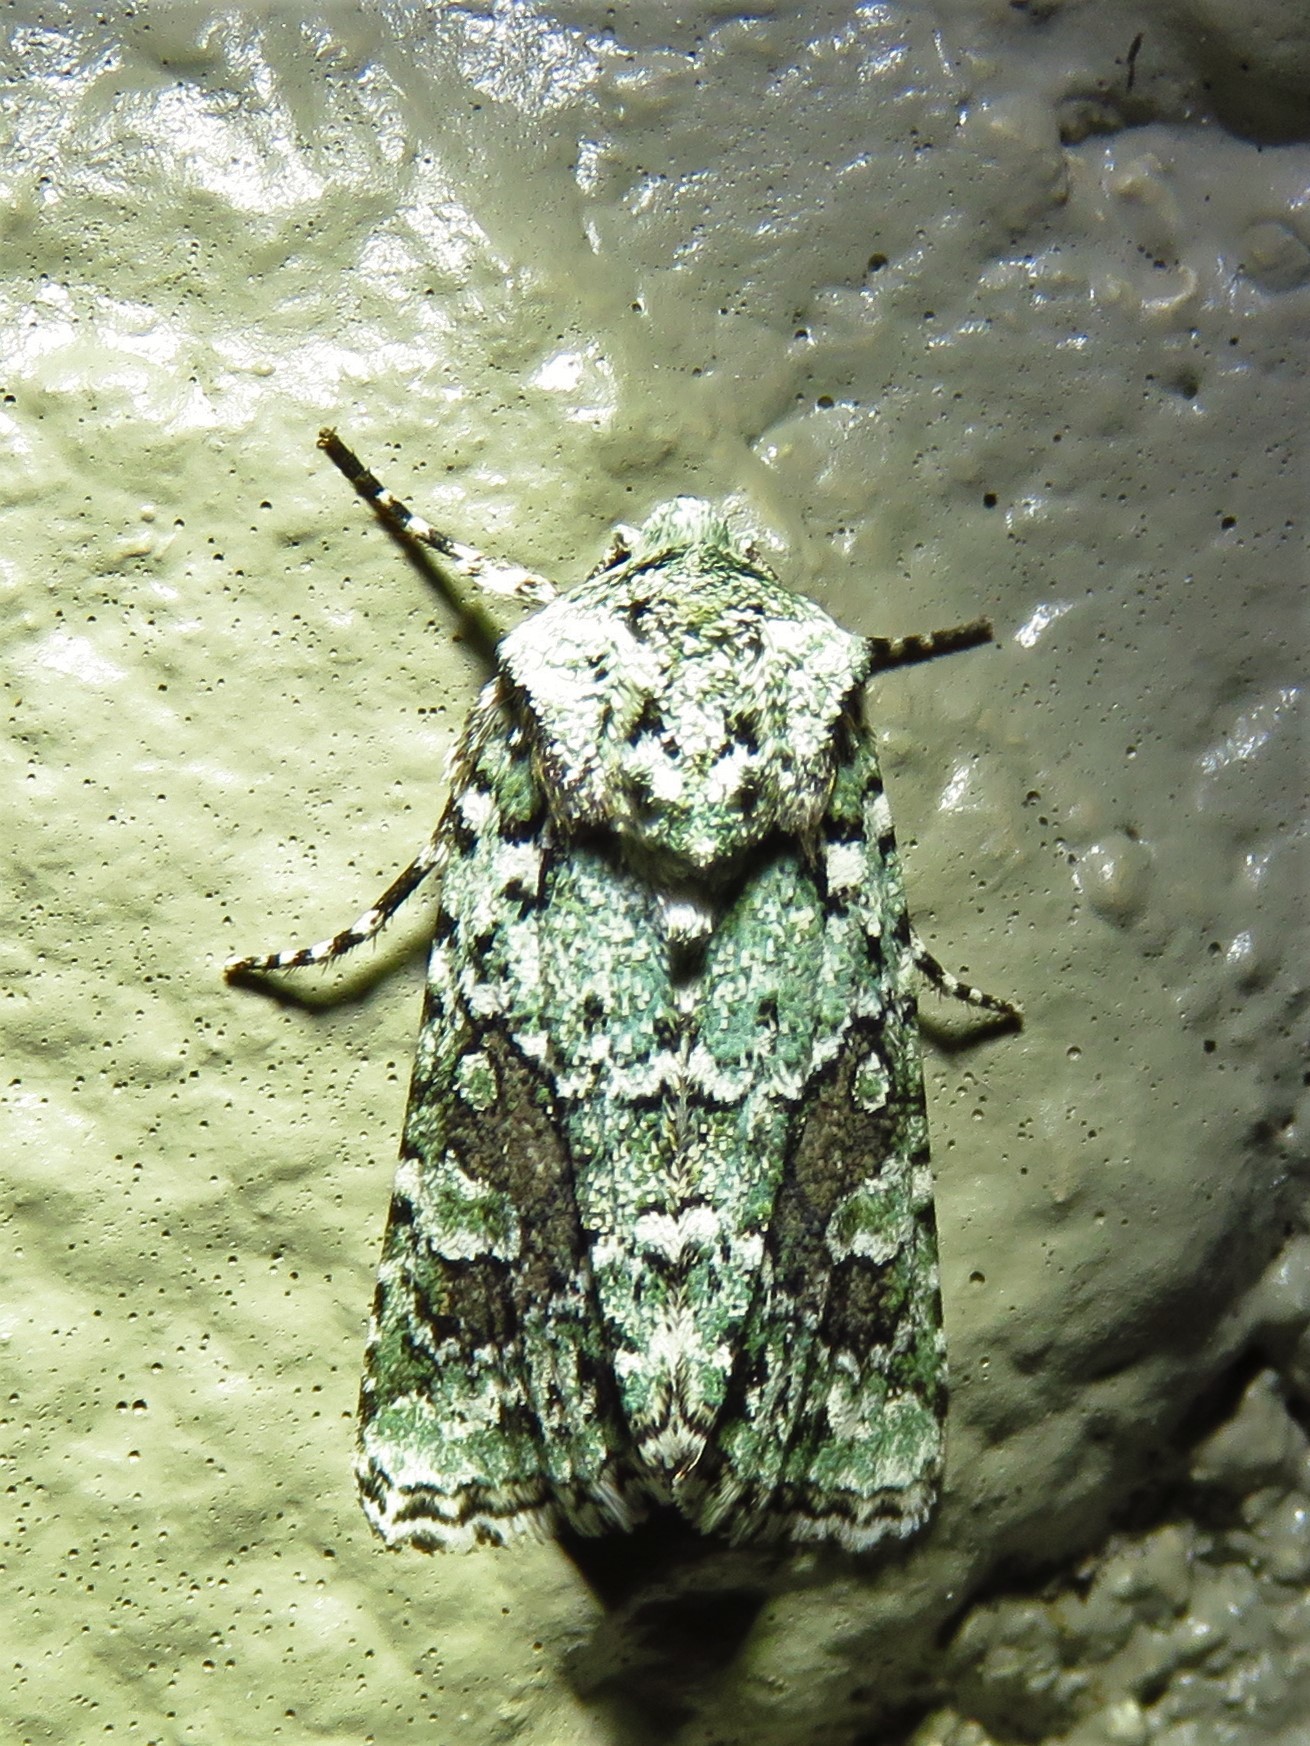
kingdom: Animalia
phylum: Arthropoda
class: Insecta
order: Lepidoptera
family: Noctuidae
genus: Lacinipolia
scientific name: Lacinipolia laudabilis
